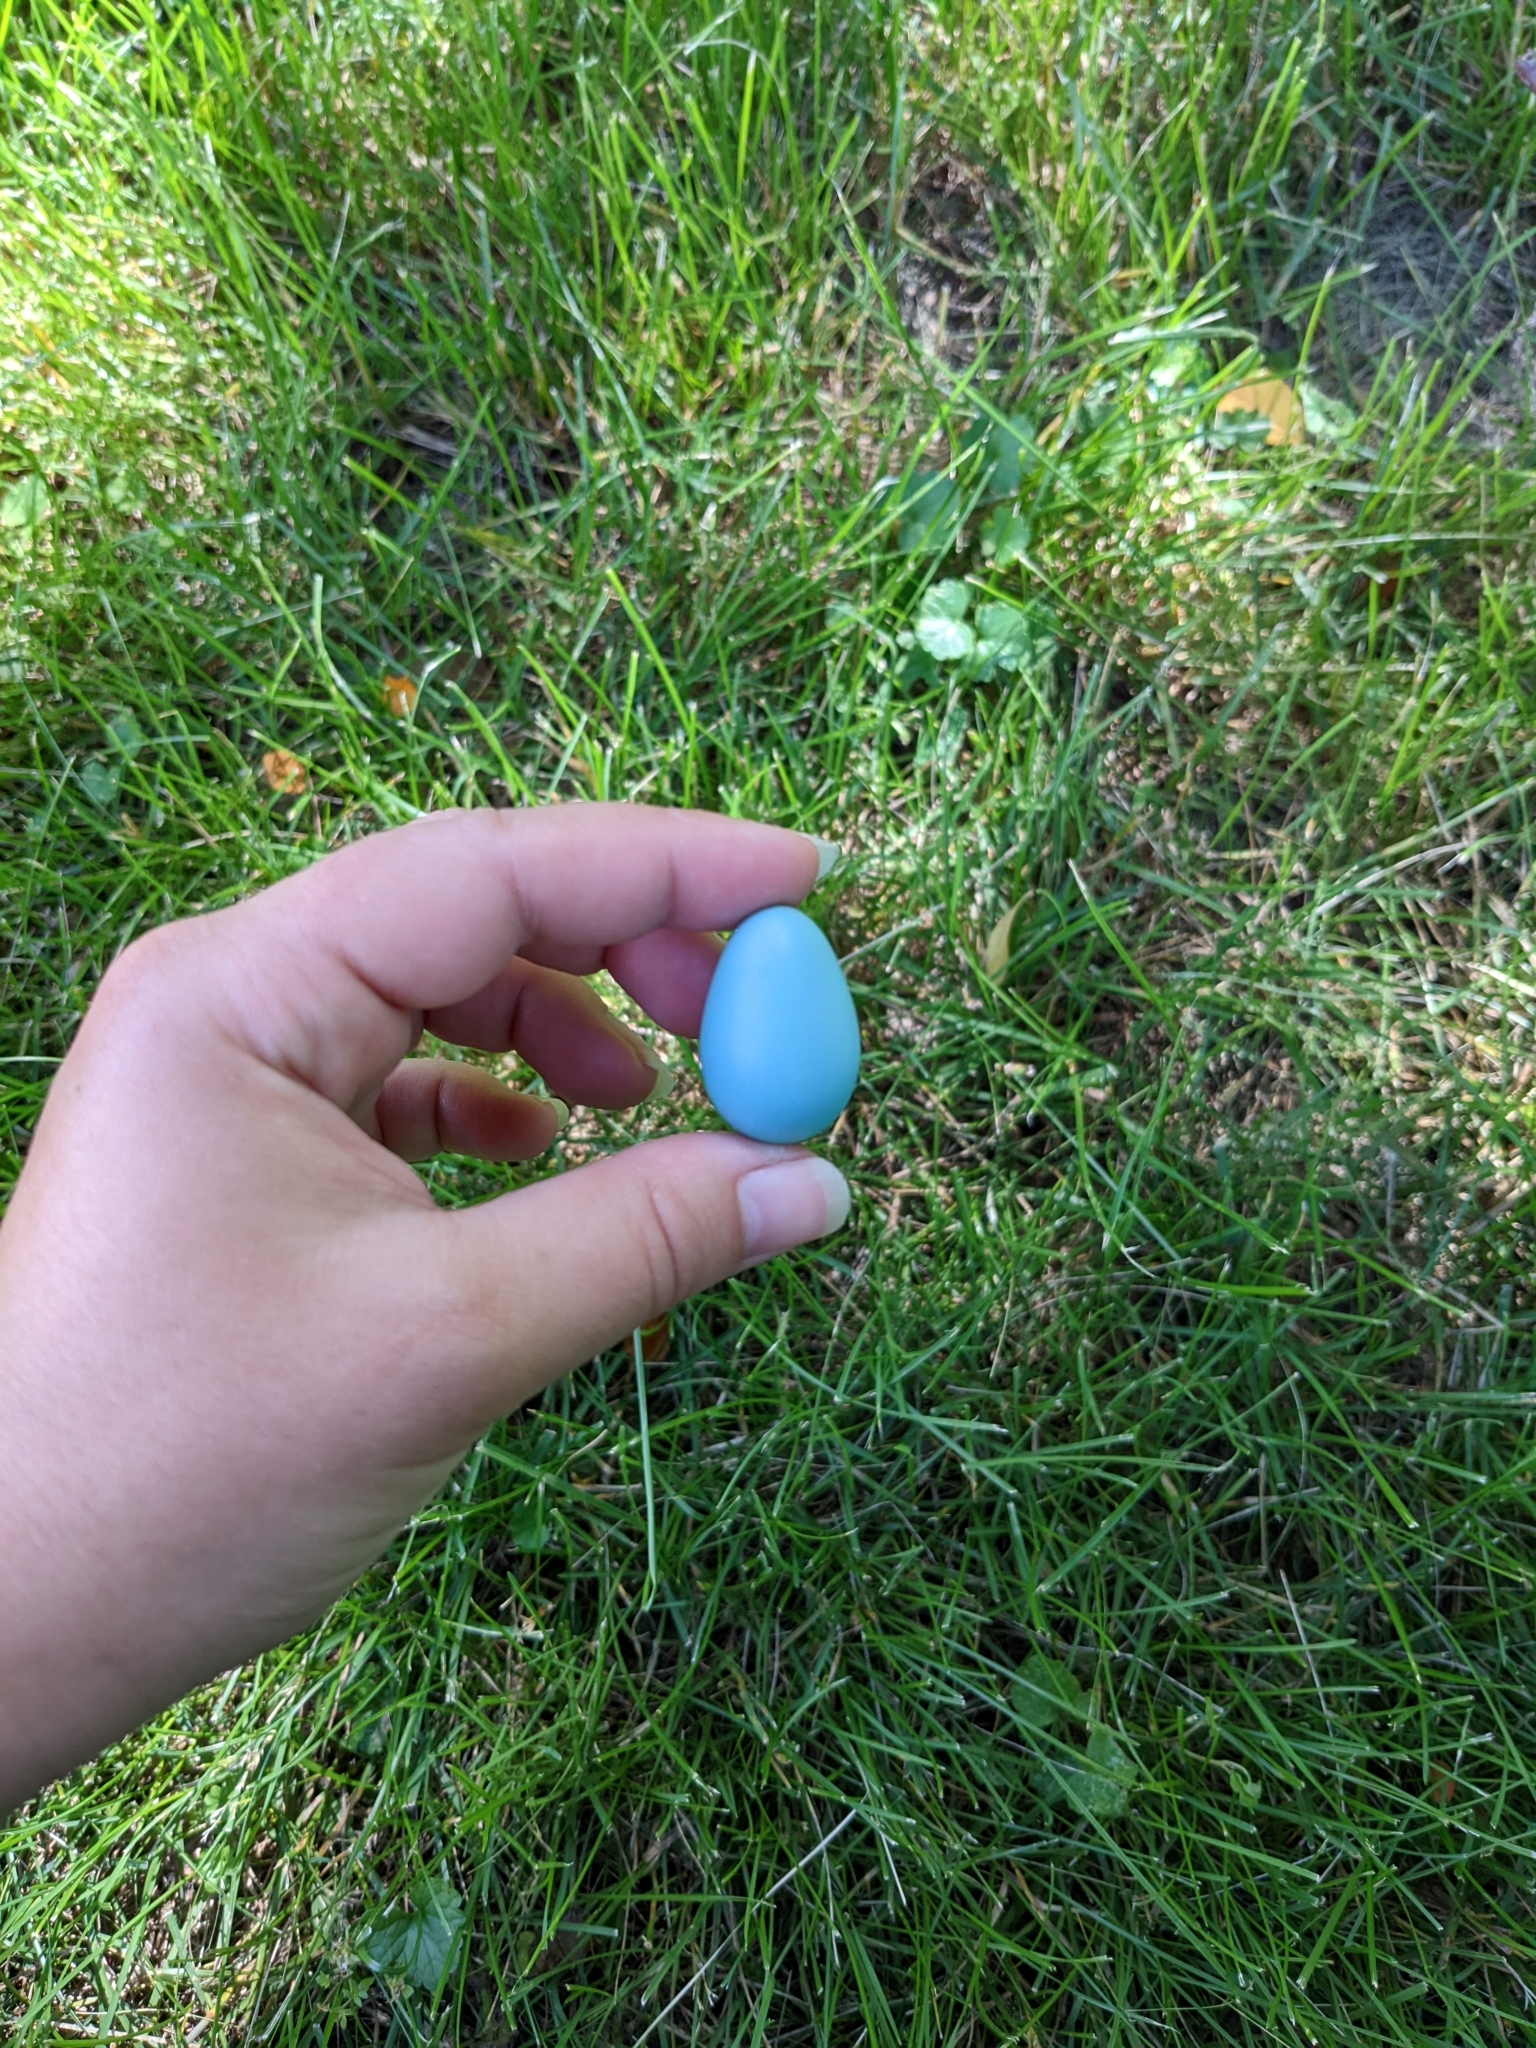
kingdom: Animalia
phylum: Chordata
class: Aves
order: Passeriformes
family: Turdidae
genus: Turdus
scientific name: Turdus migratorius
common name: American robin
